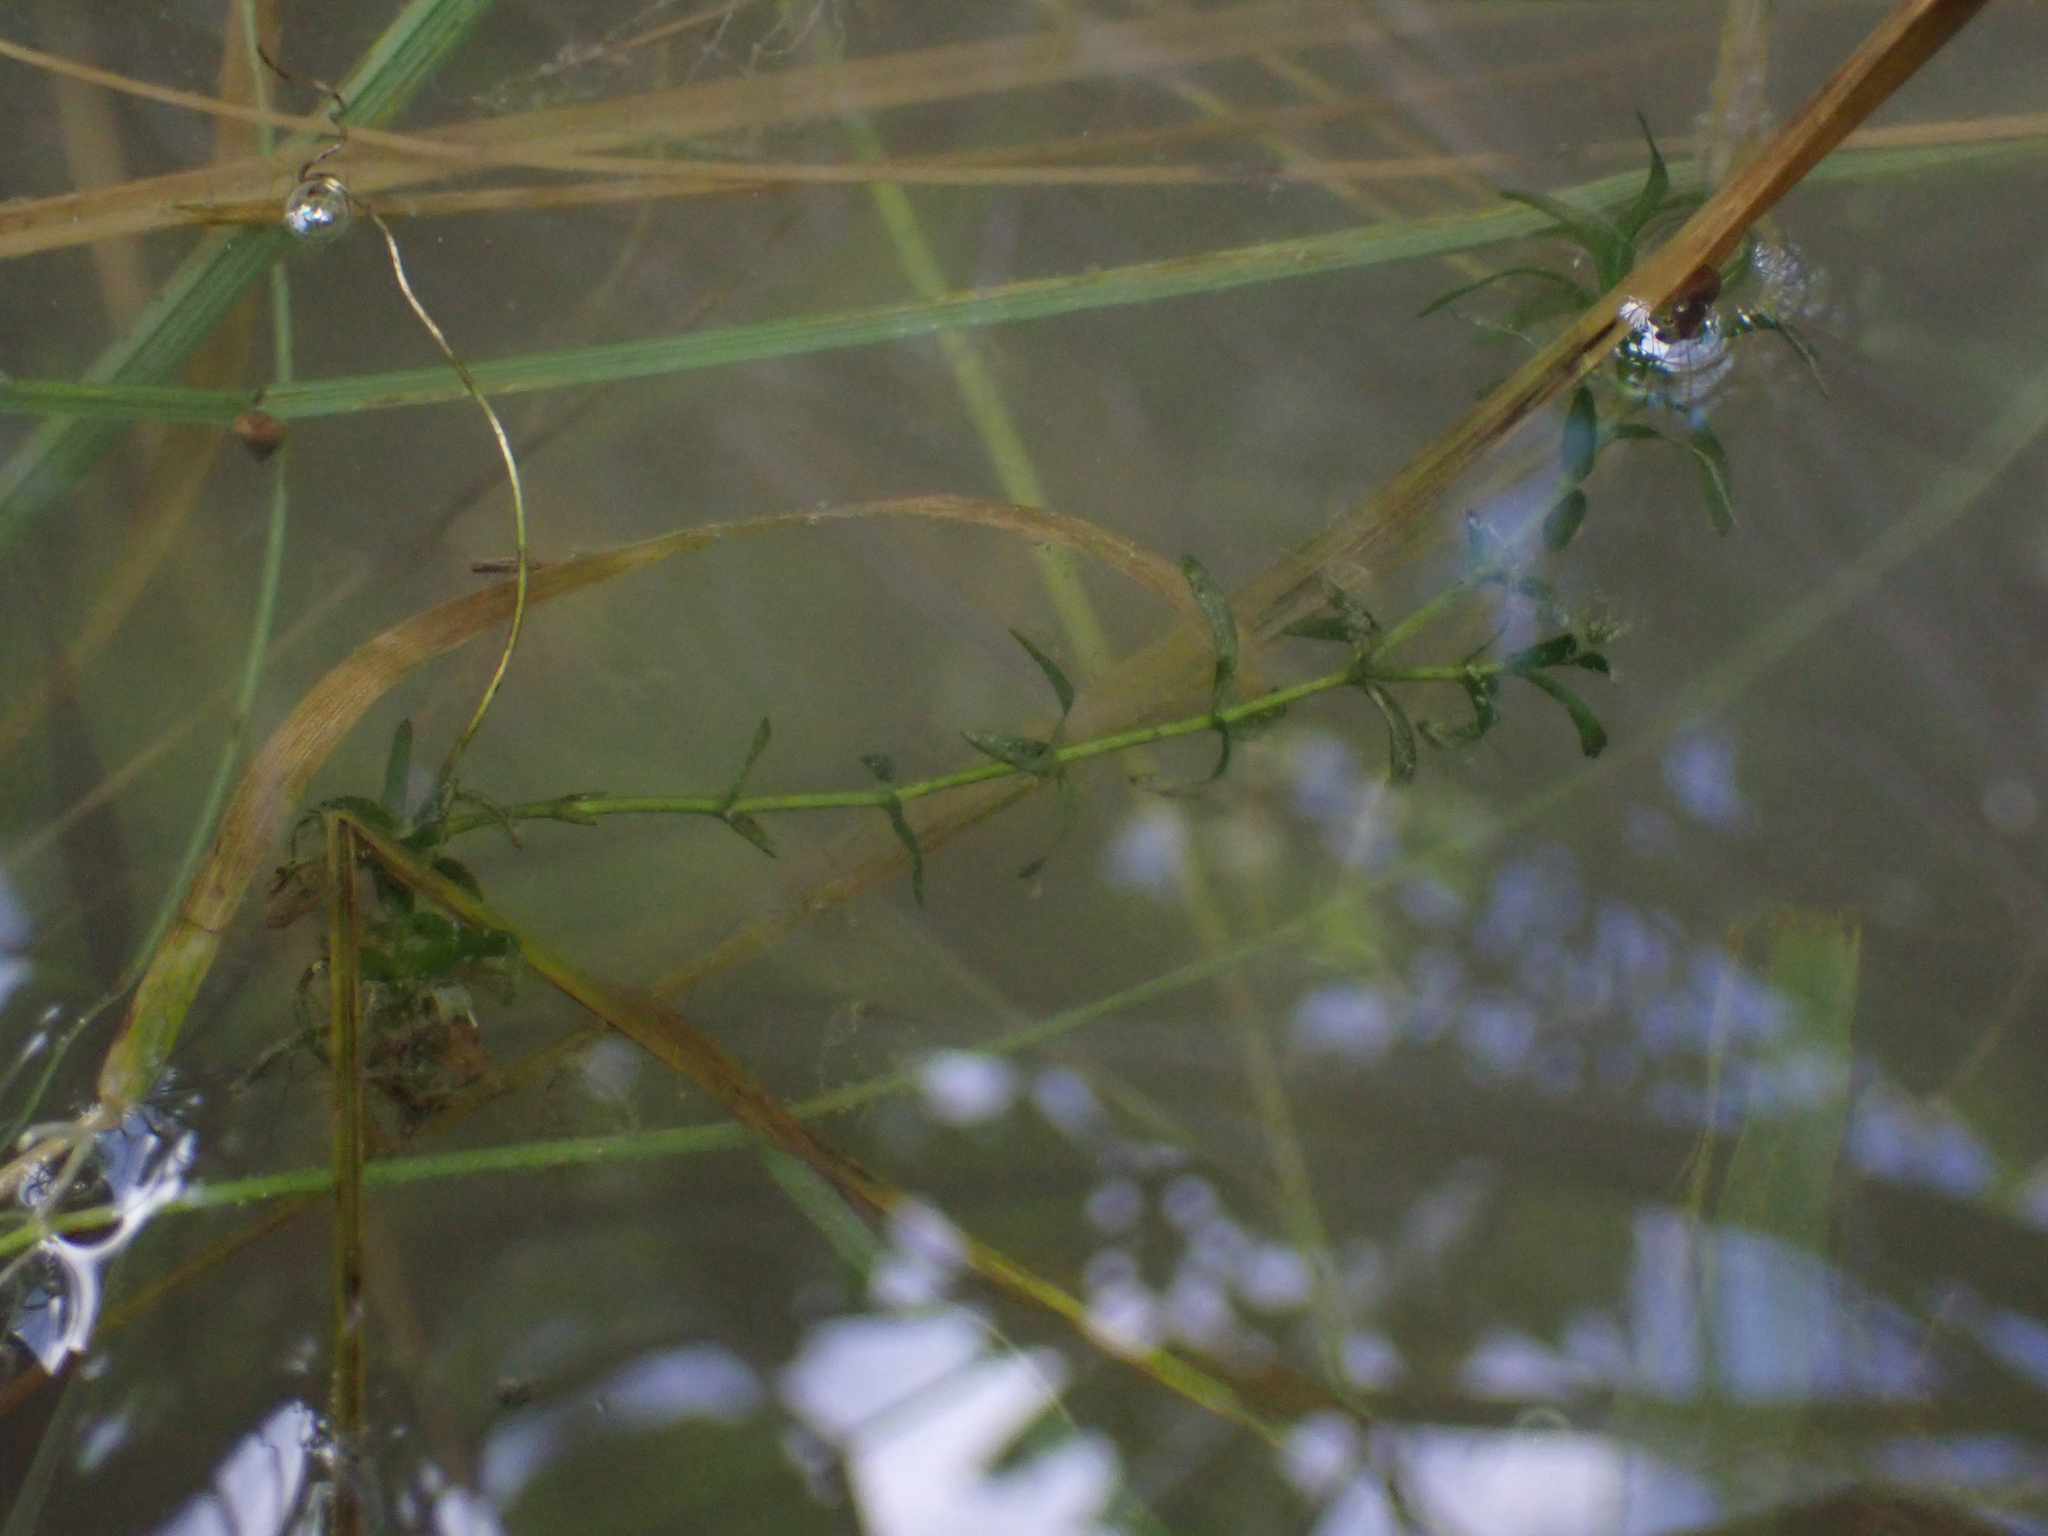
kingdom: Plantae
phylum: Tracheophyta
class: Liliopsida
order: Alismatales
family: Hydrocharitaceae
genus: Elodea
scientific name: Elodea canadensis
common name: Canadian waterweed
